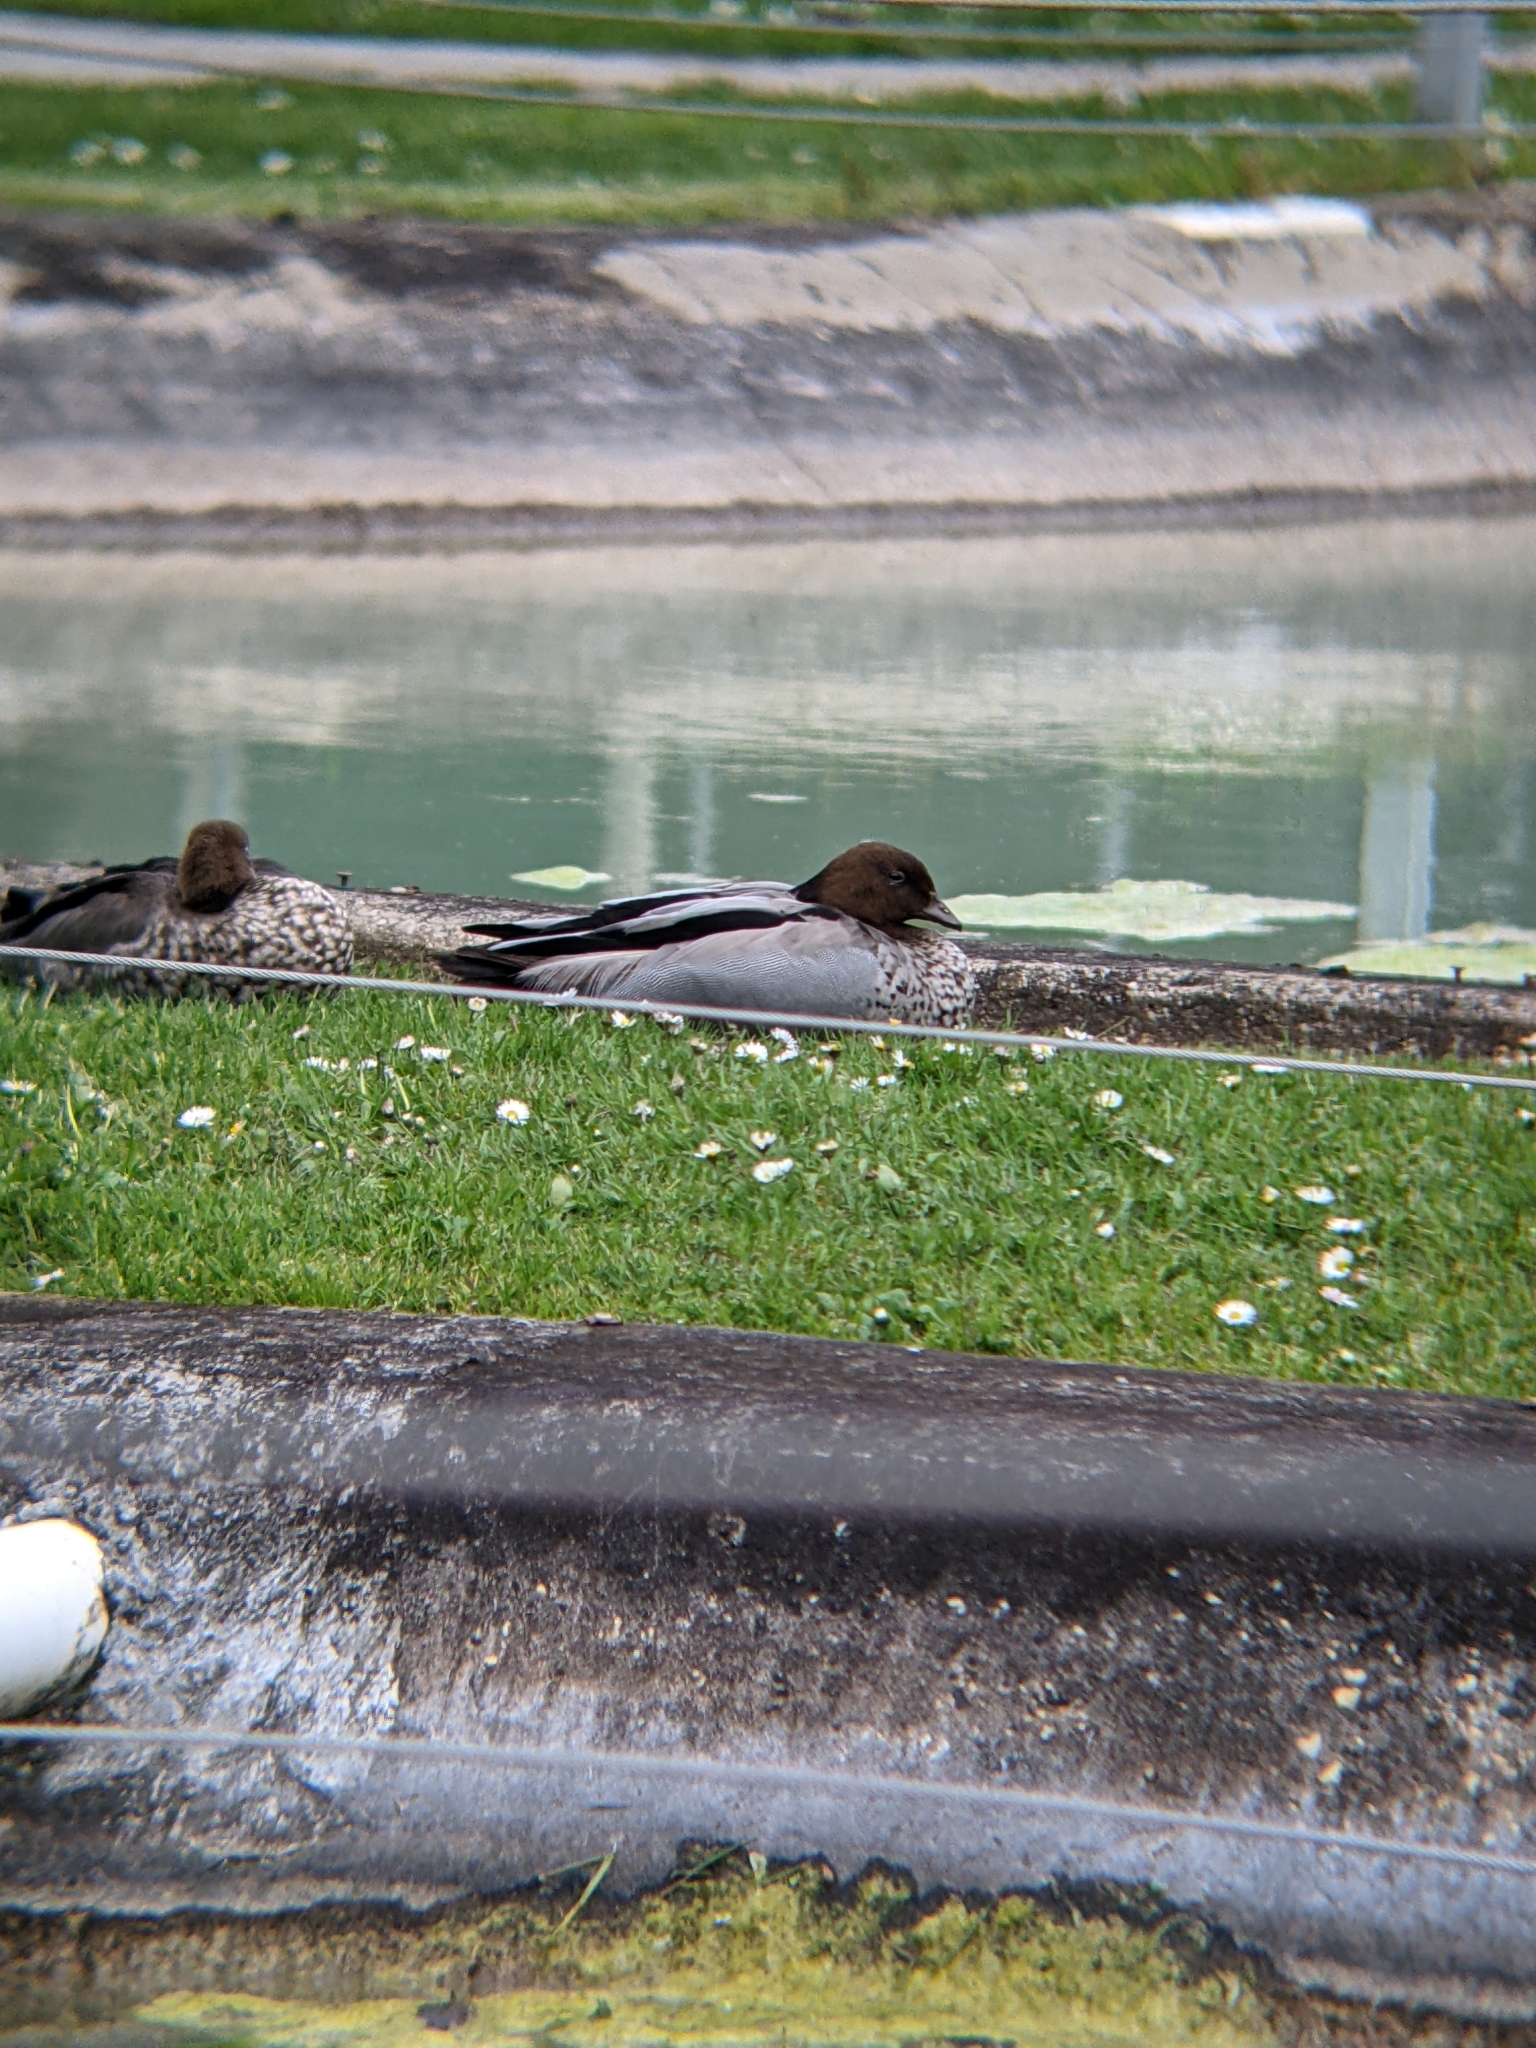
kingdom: Animalia
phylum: Chordata
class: Aves
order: Anseriformes
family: Anatidae
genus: Chenonetta
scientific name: Chenonetta jubata
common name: Maned duck
